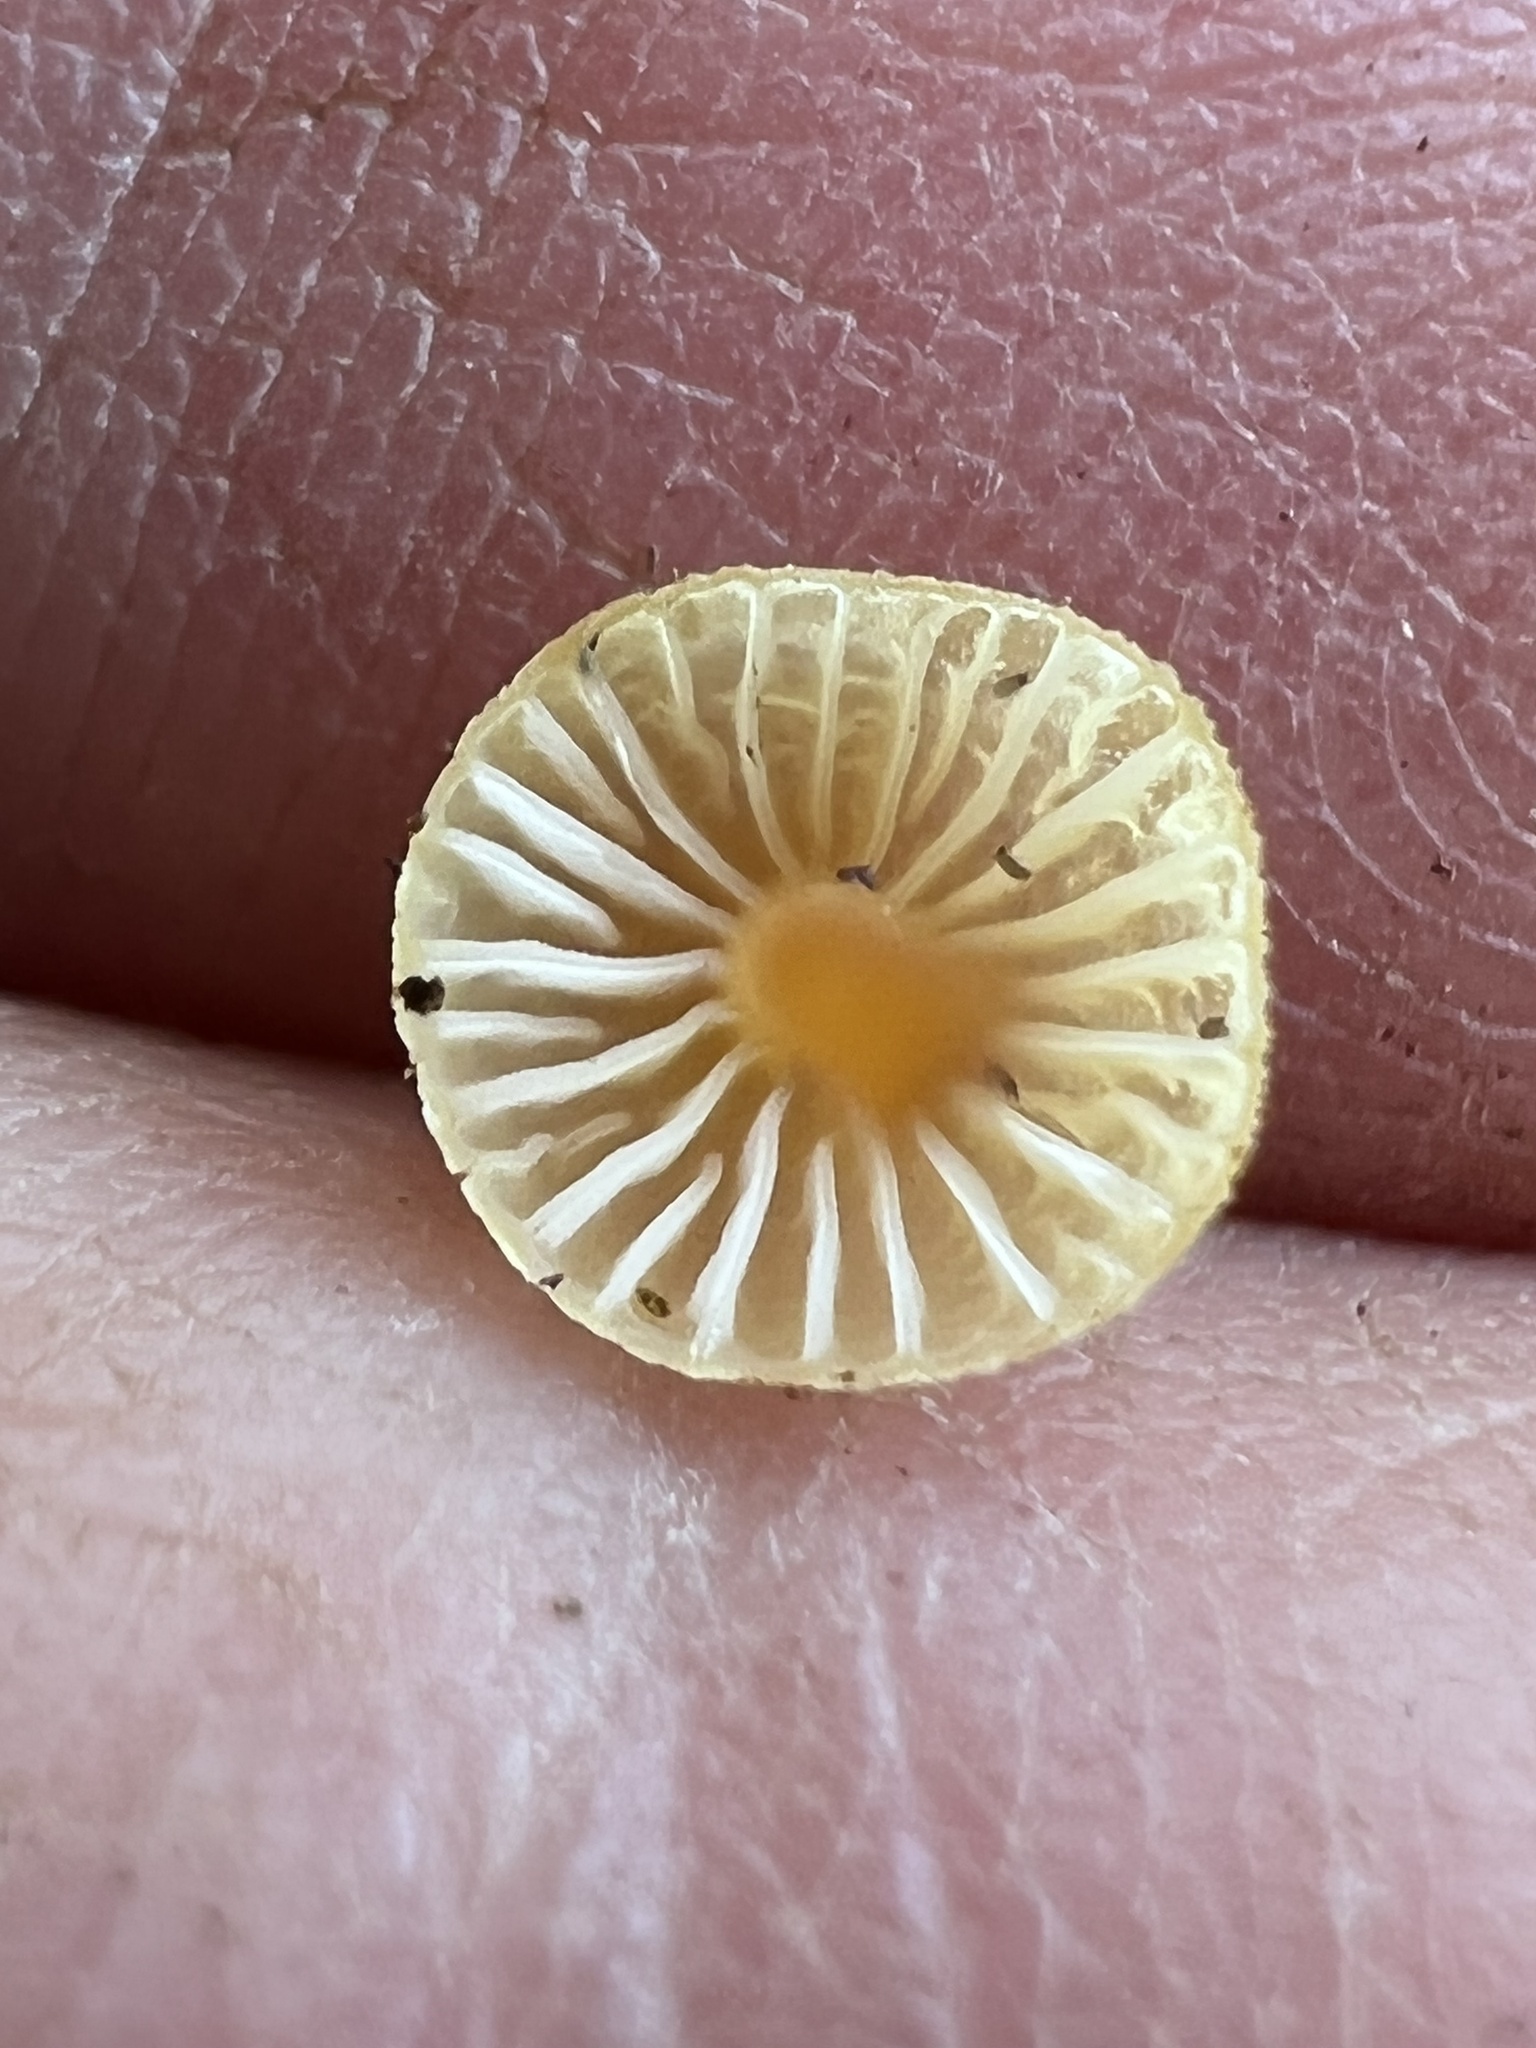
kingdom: Fungi
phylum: Basidiomycota
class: Agaricomycetes
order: Agaricales
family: Mycenaceae
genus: Mycena
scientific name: Mycena crocea
